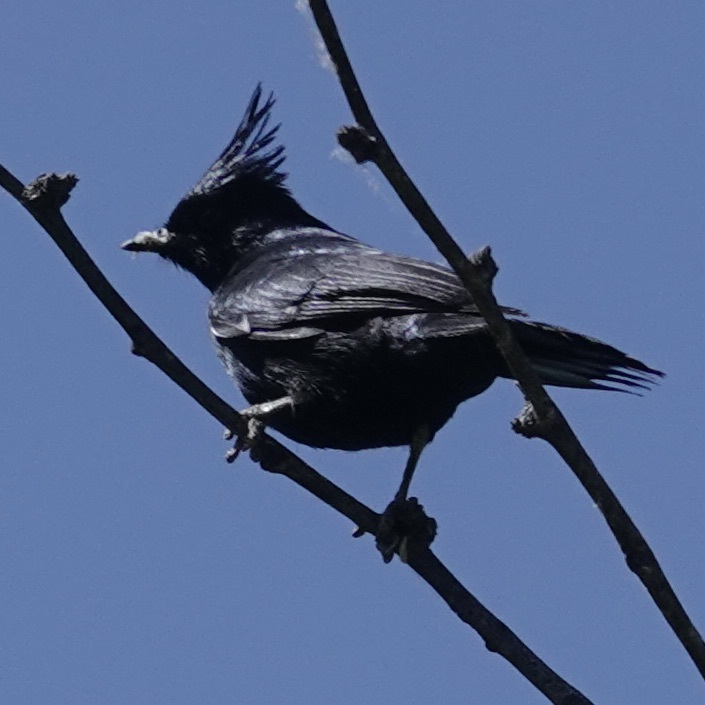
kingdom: Animalia
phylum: Chordata
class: Aves
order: Passeriformes
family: Ptilogonatidae
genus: Phainopepla
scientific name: Phainopepla nitens
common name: Phainopepla
